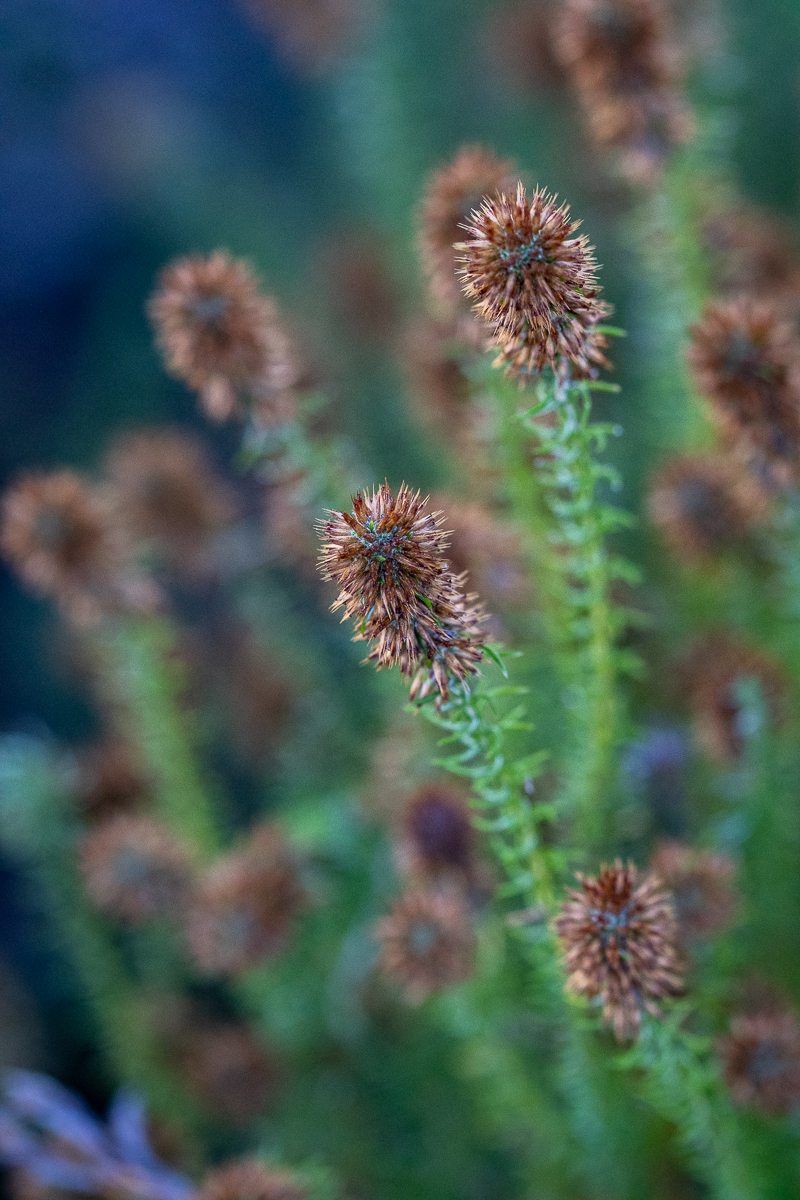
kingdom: Plantae
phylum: Tracheophyta
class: Magnoliopsida
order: Asterales
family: Asteraceae
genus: Seriphium
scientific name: Seriphium cinereum
